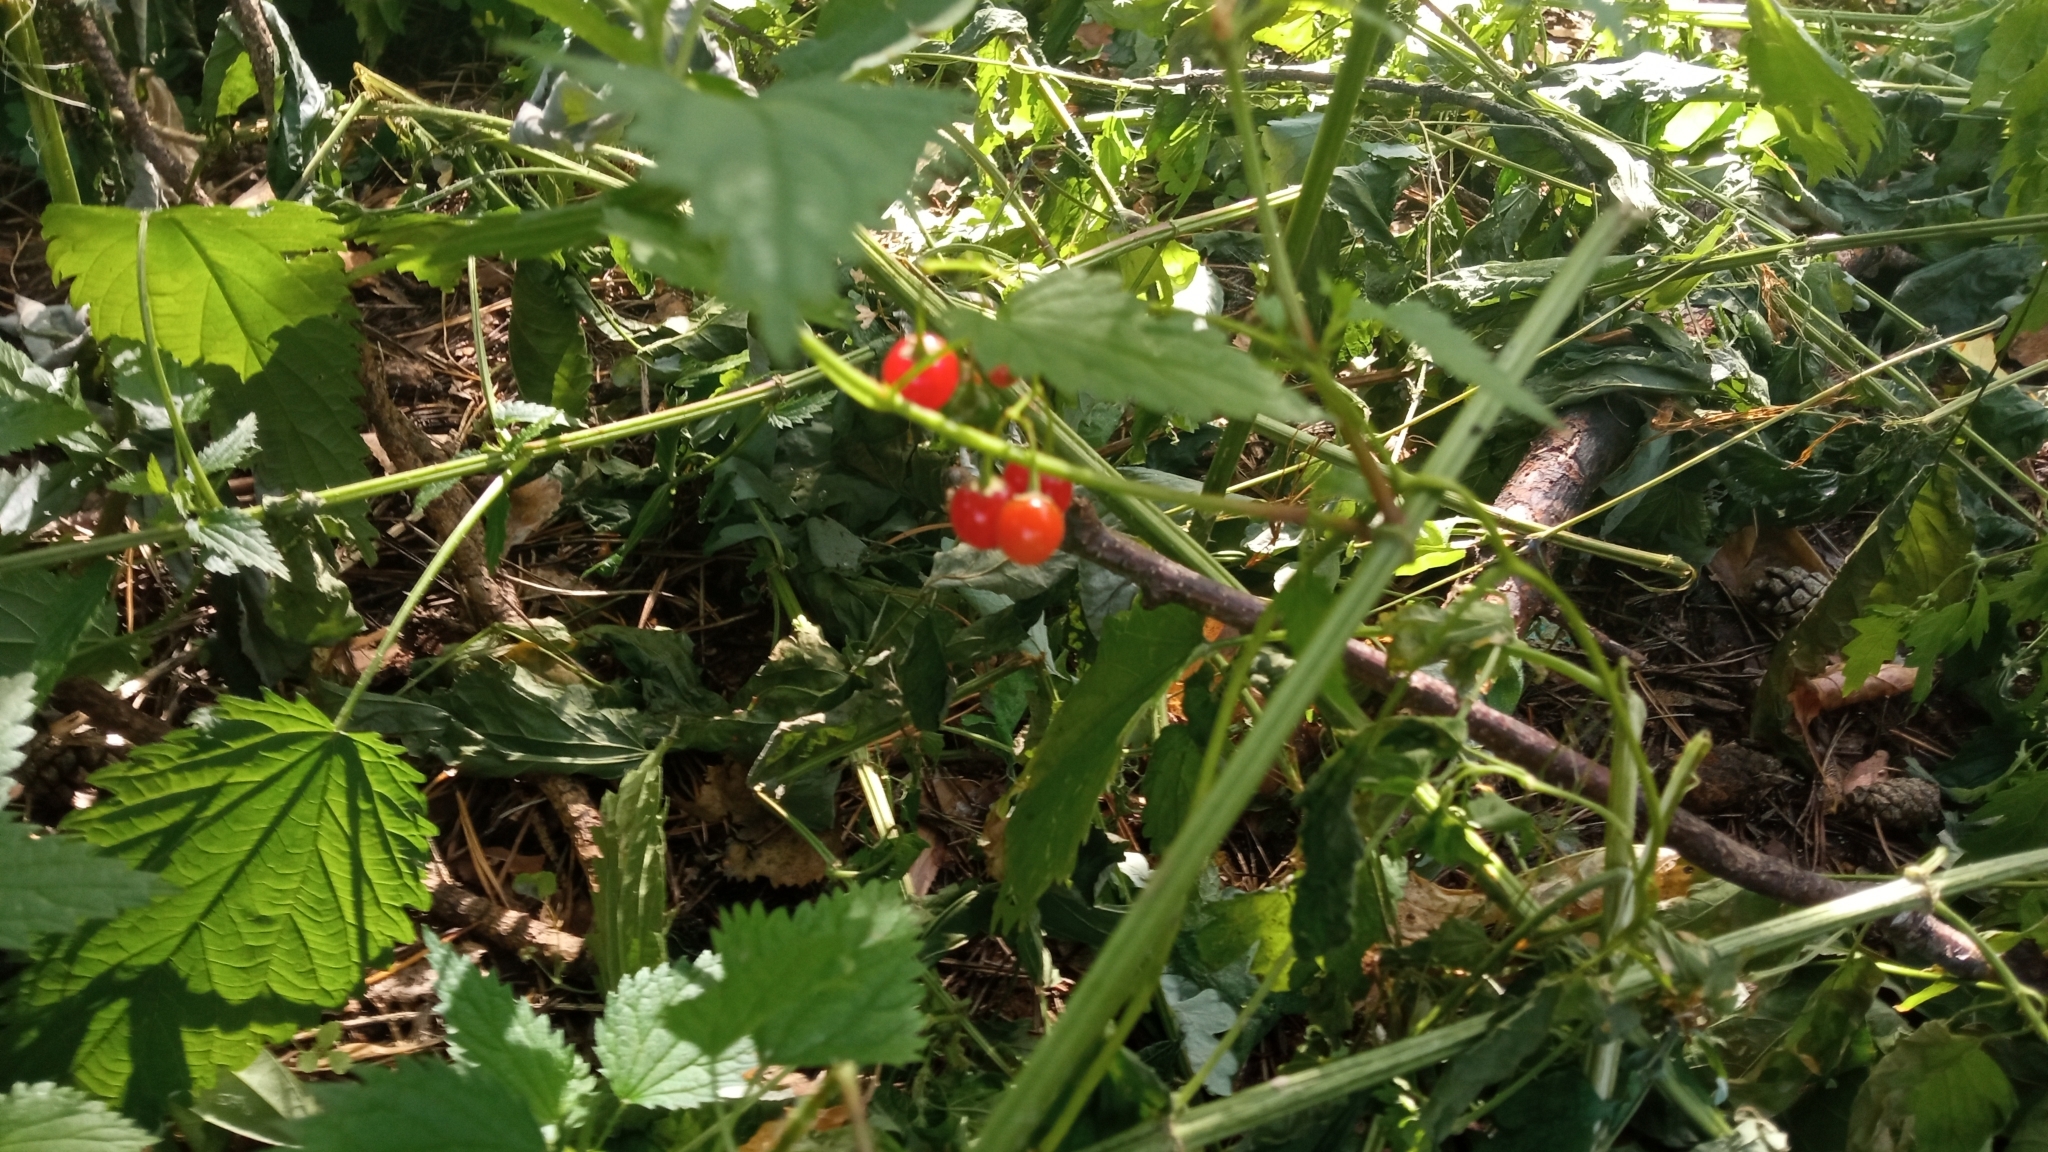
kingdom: Plantae
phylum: Tracheophyta
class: Magnoliopsida
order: Solanales
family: Solanaceae
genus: Solanum
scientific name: Solanum dulcamara
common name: Climbing nightshade
